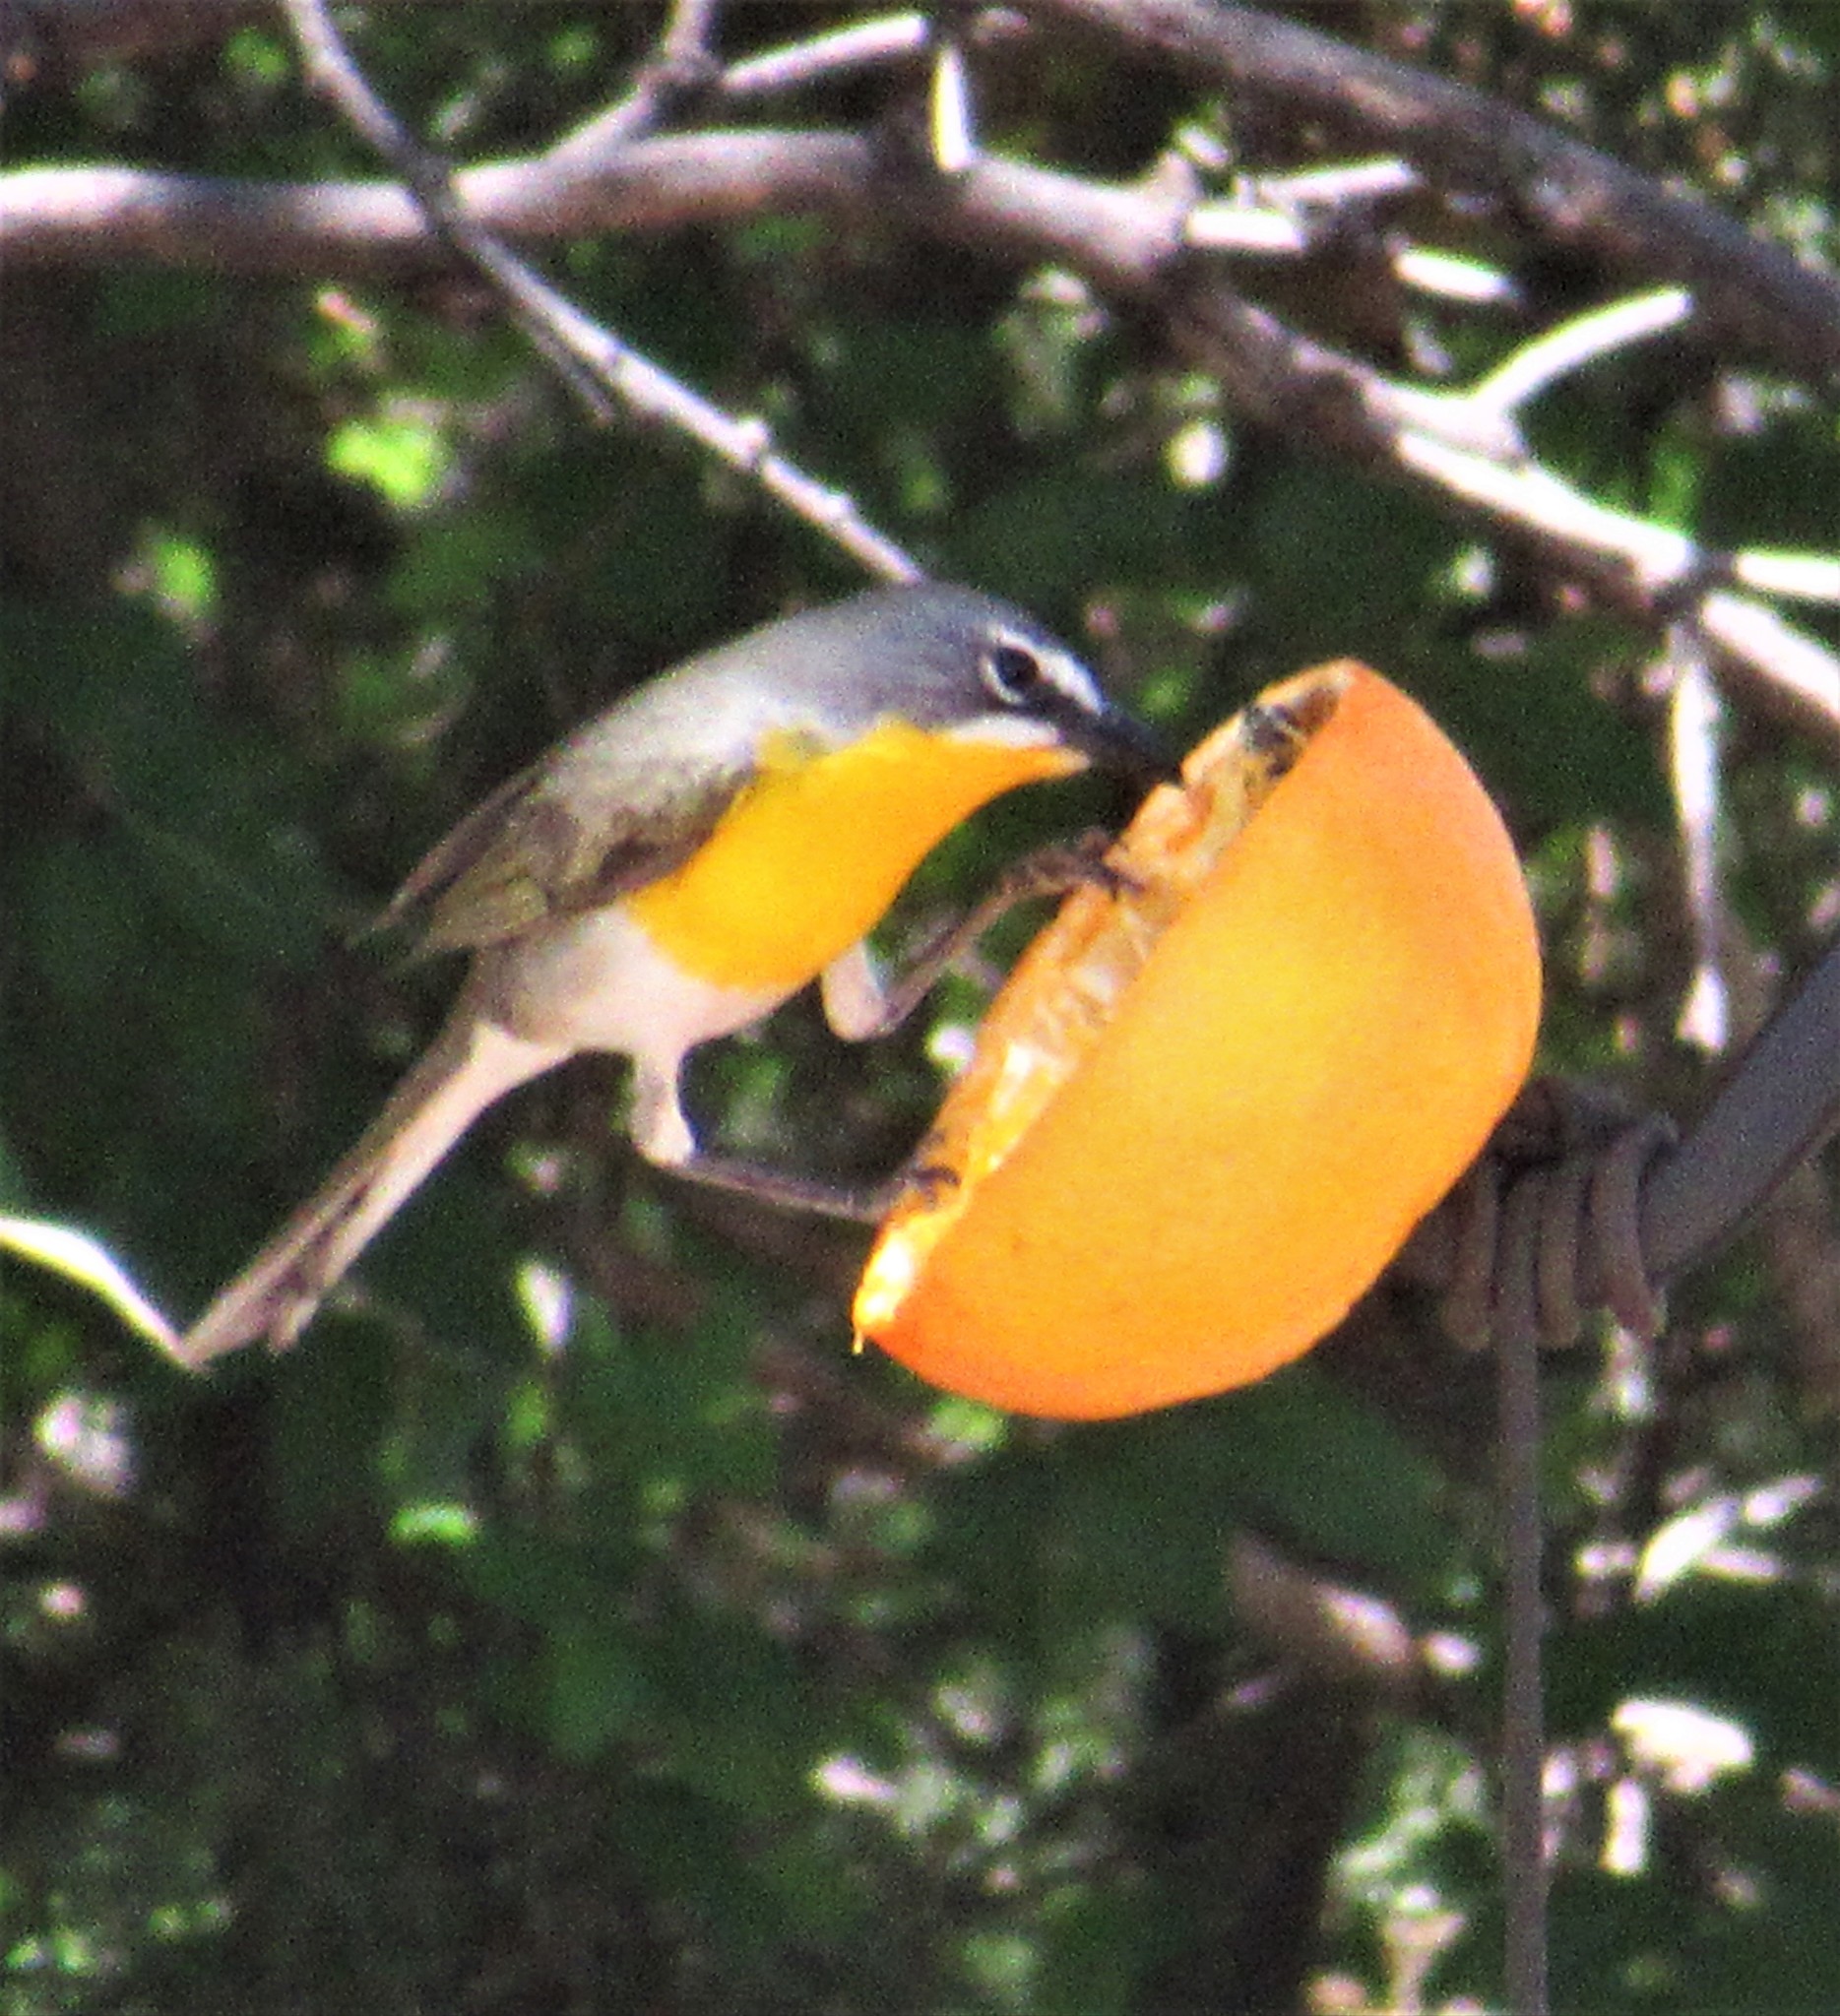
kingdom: Animalia
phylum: Chordata
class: Aves
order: Passeriformes
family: Parulidae
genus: Icteria
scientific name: Icteria virens
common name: Yellow-breasted chat
